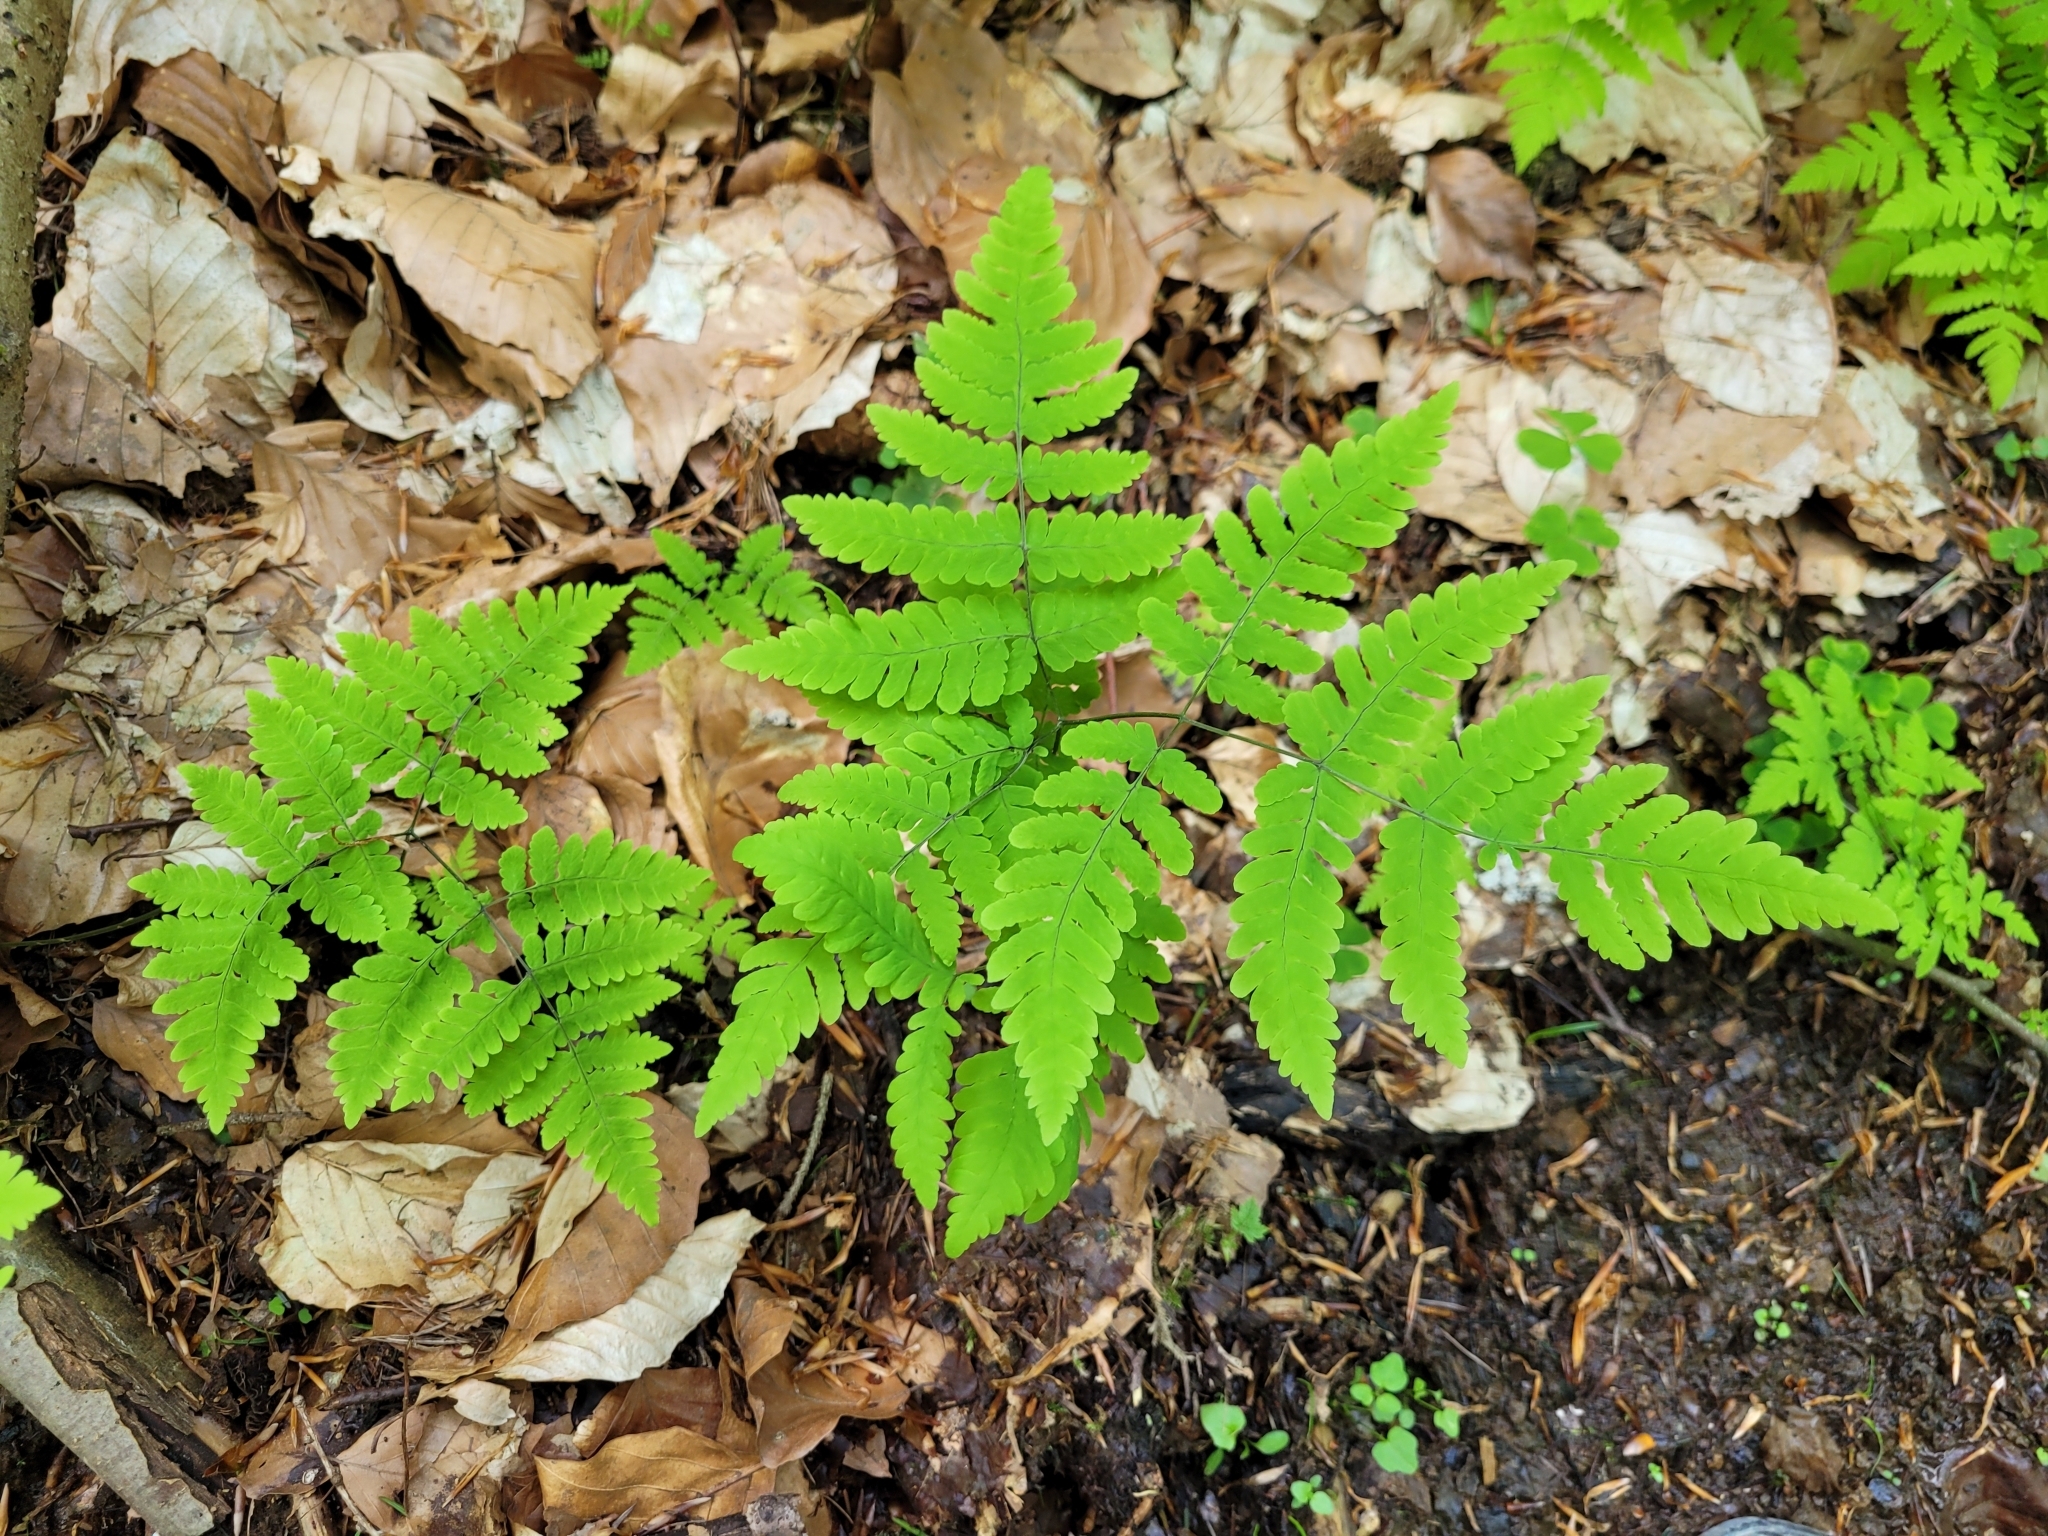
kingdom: Plantae
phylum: Tracheophyta
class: Polypodiopsida
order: Polypodiales
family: Cystopteridaceae
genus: Gymnocarpium
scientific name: Gymnocarpium dryopteris
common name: Oak fern
